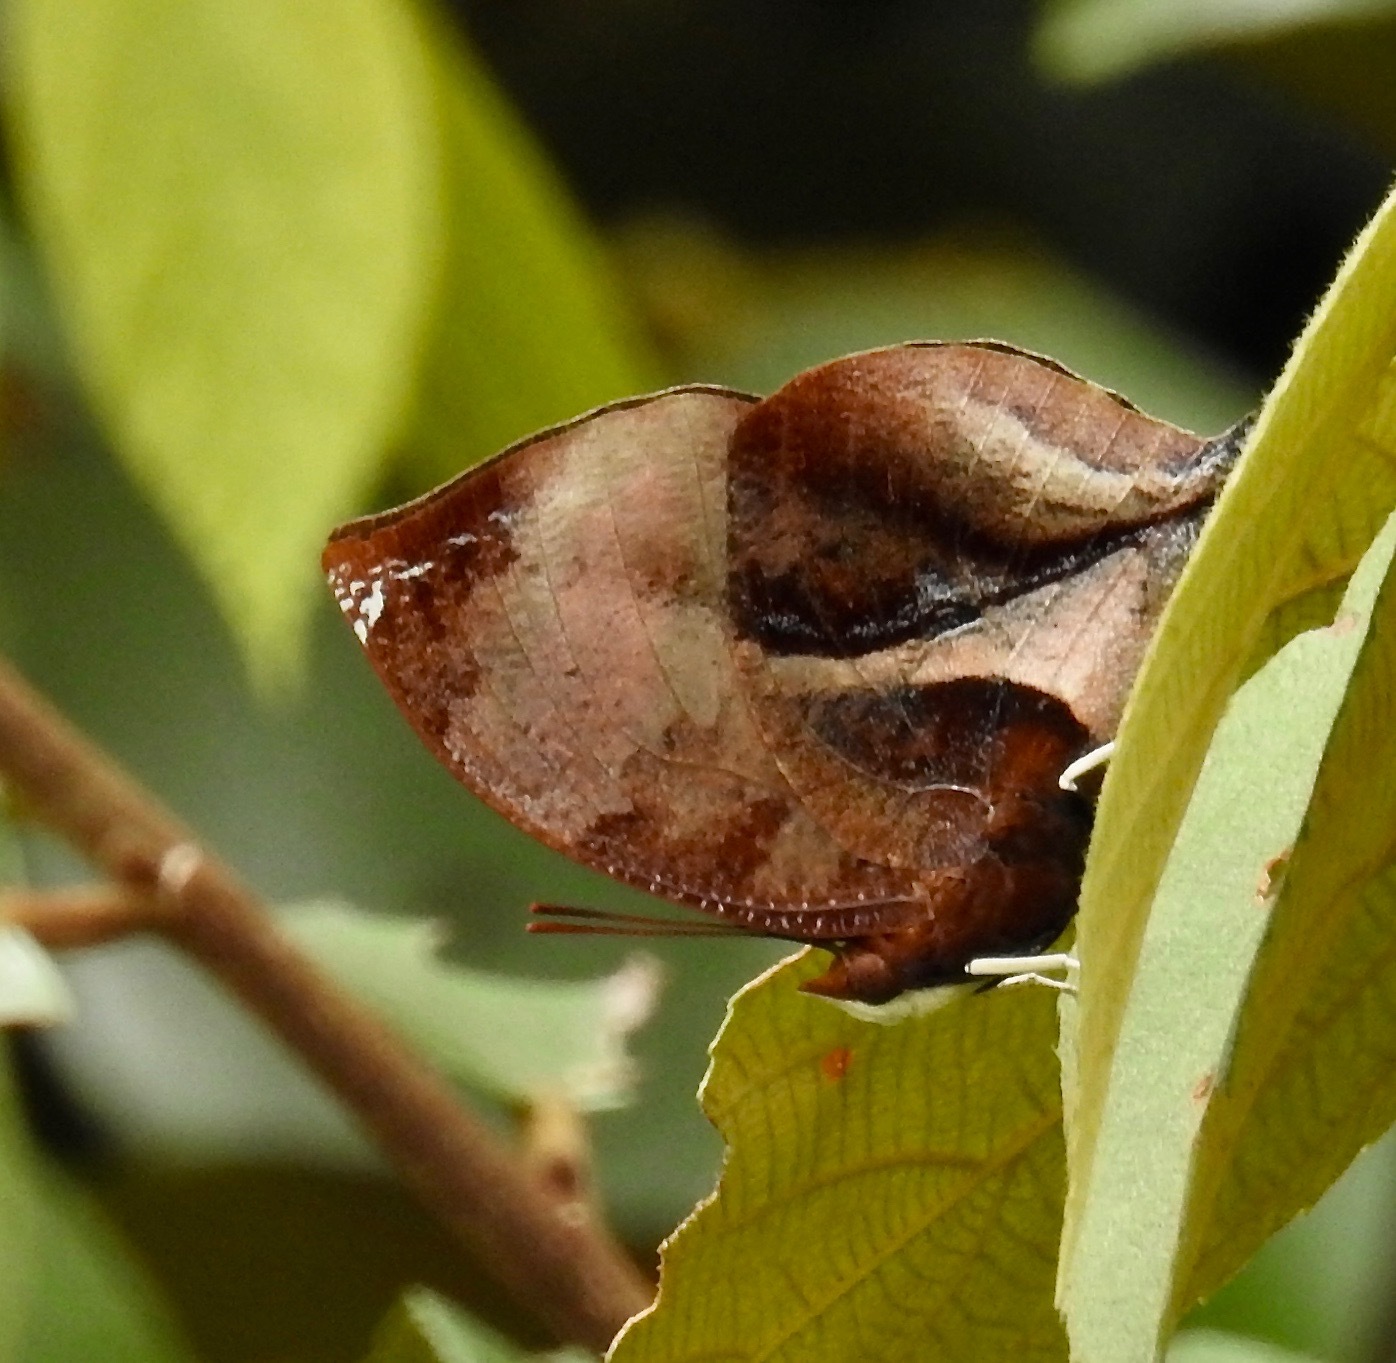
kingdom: Animalia
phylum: Arthropoda
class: Insecta
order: Lepidoptera
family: Nymphalidae
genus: Siderone
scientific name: Siderone galanthis
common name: Red-striped leafwing
